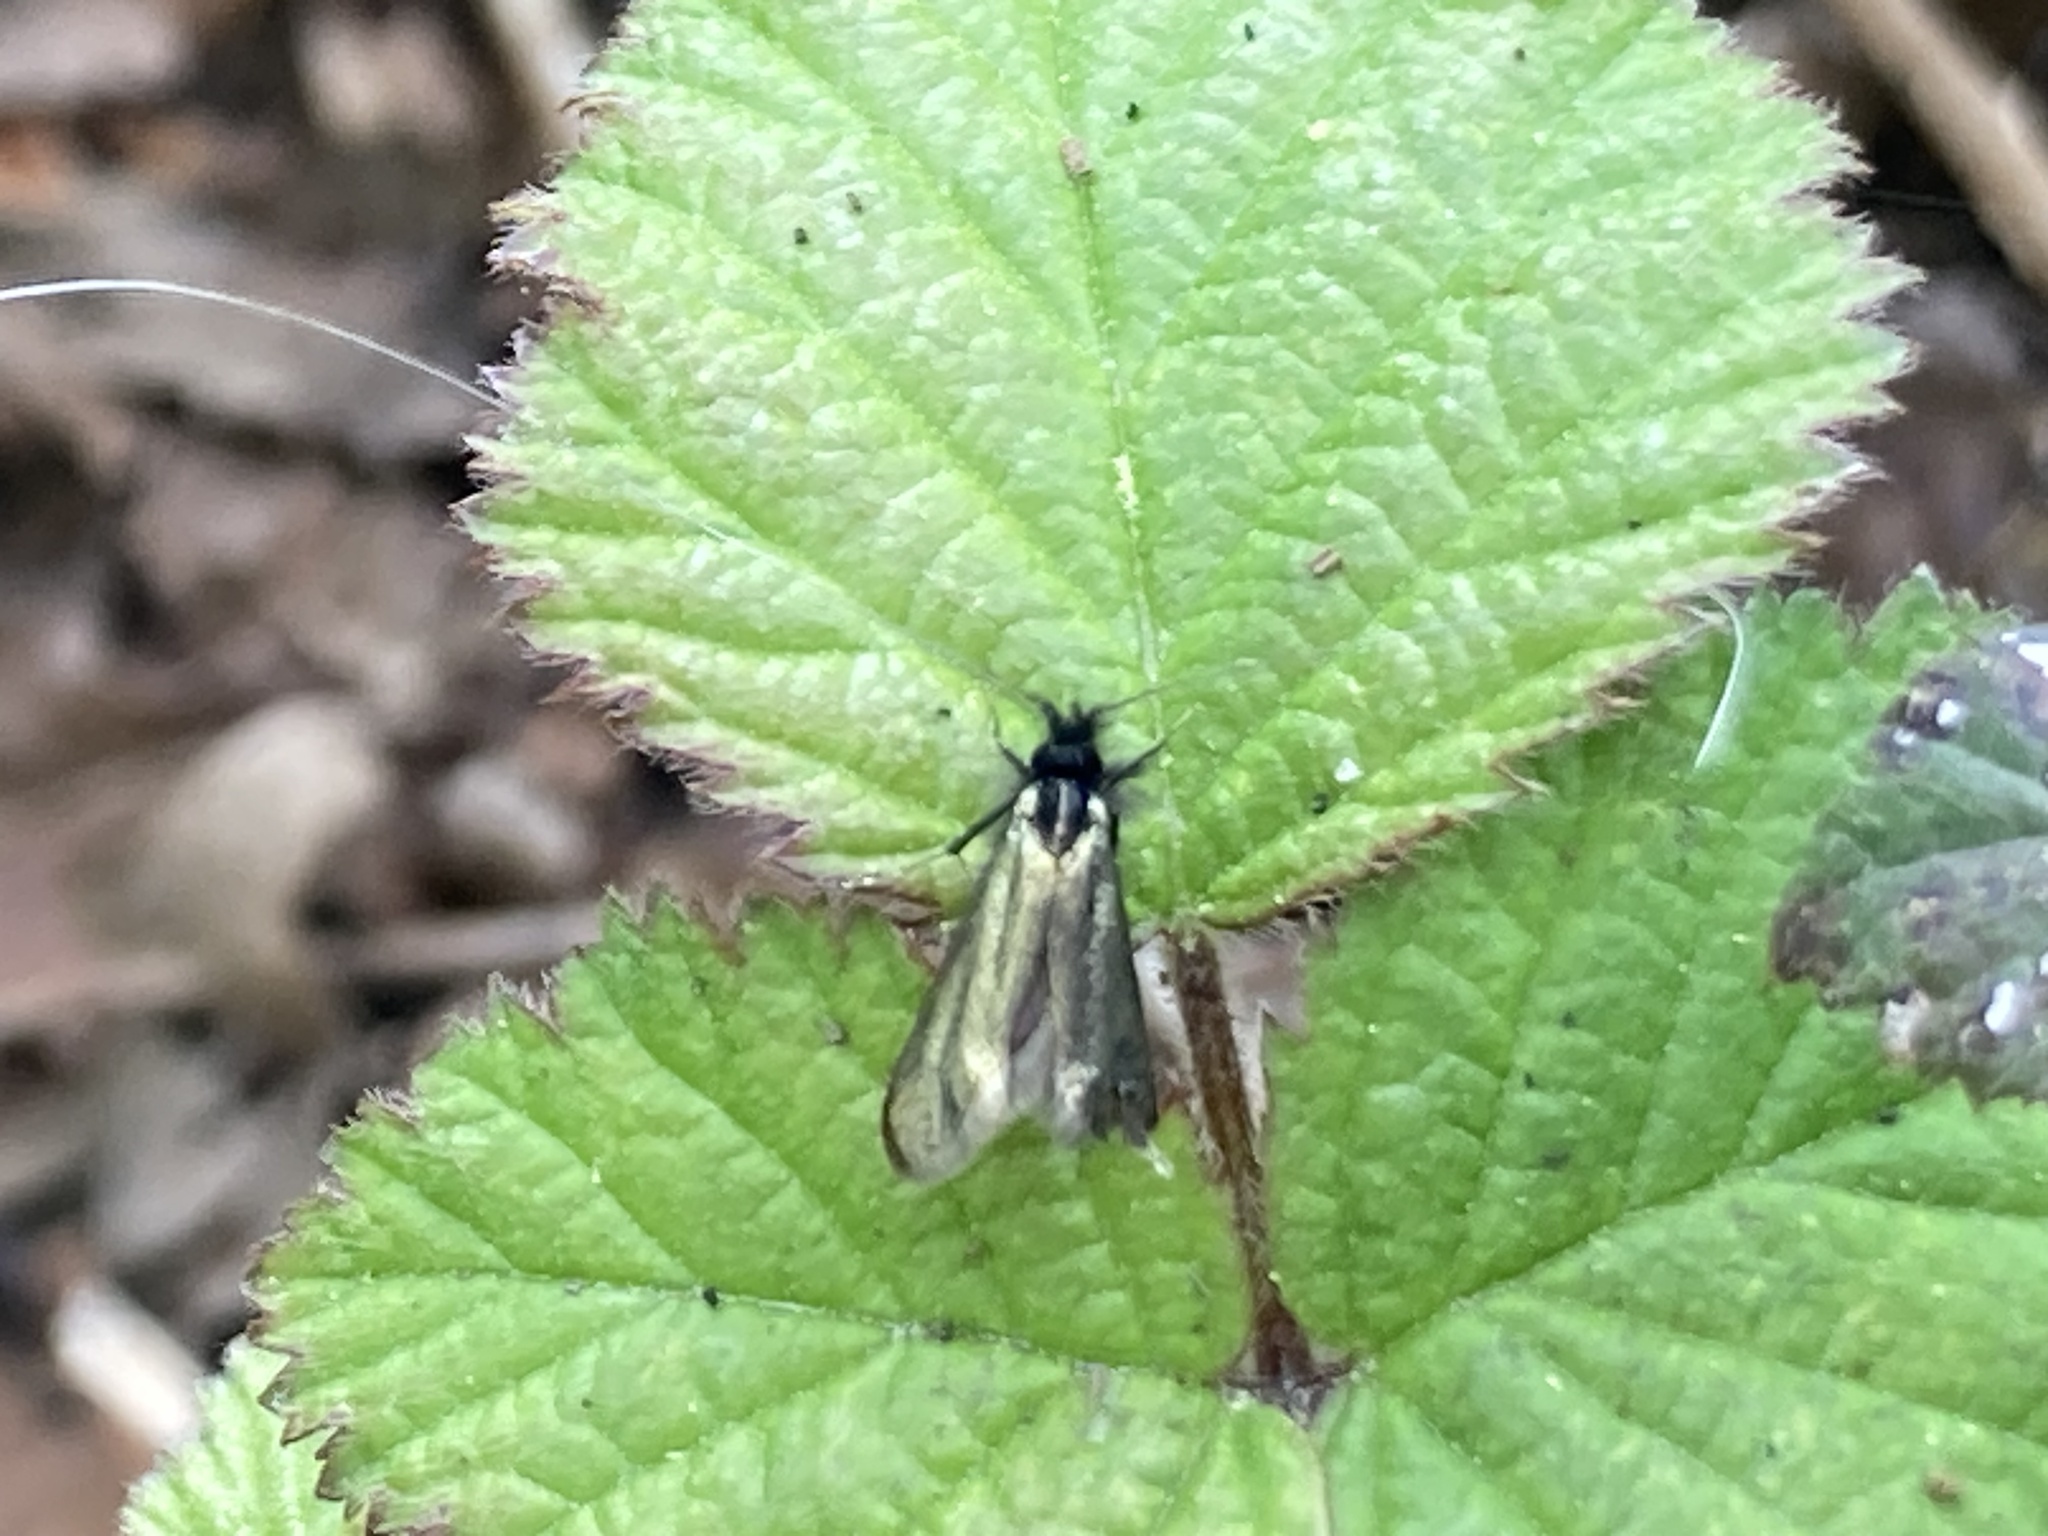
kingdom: Animalia
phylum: Arthropoda
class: Insecta
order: Lepidoptera
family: Adelidae
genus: Adela
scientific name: Adela viridella
